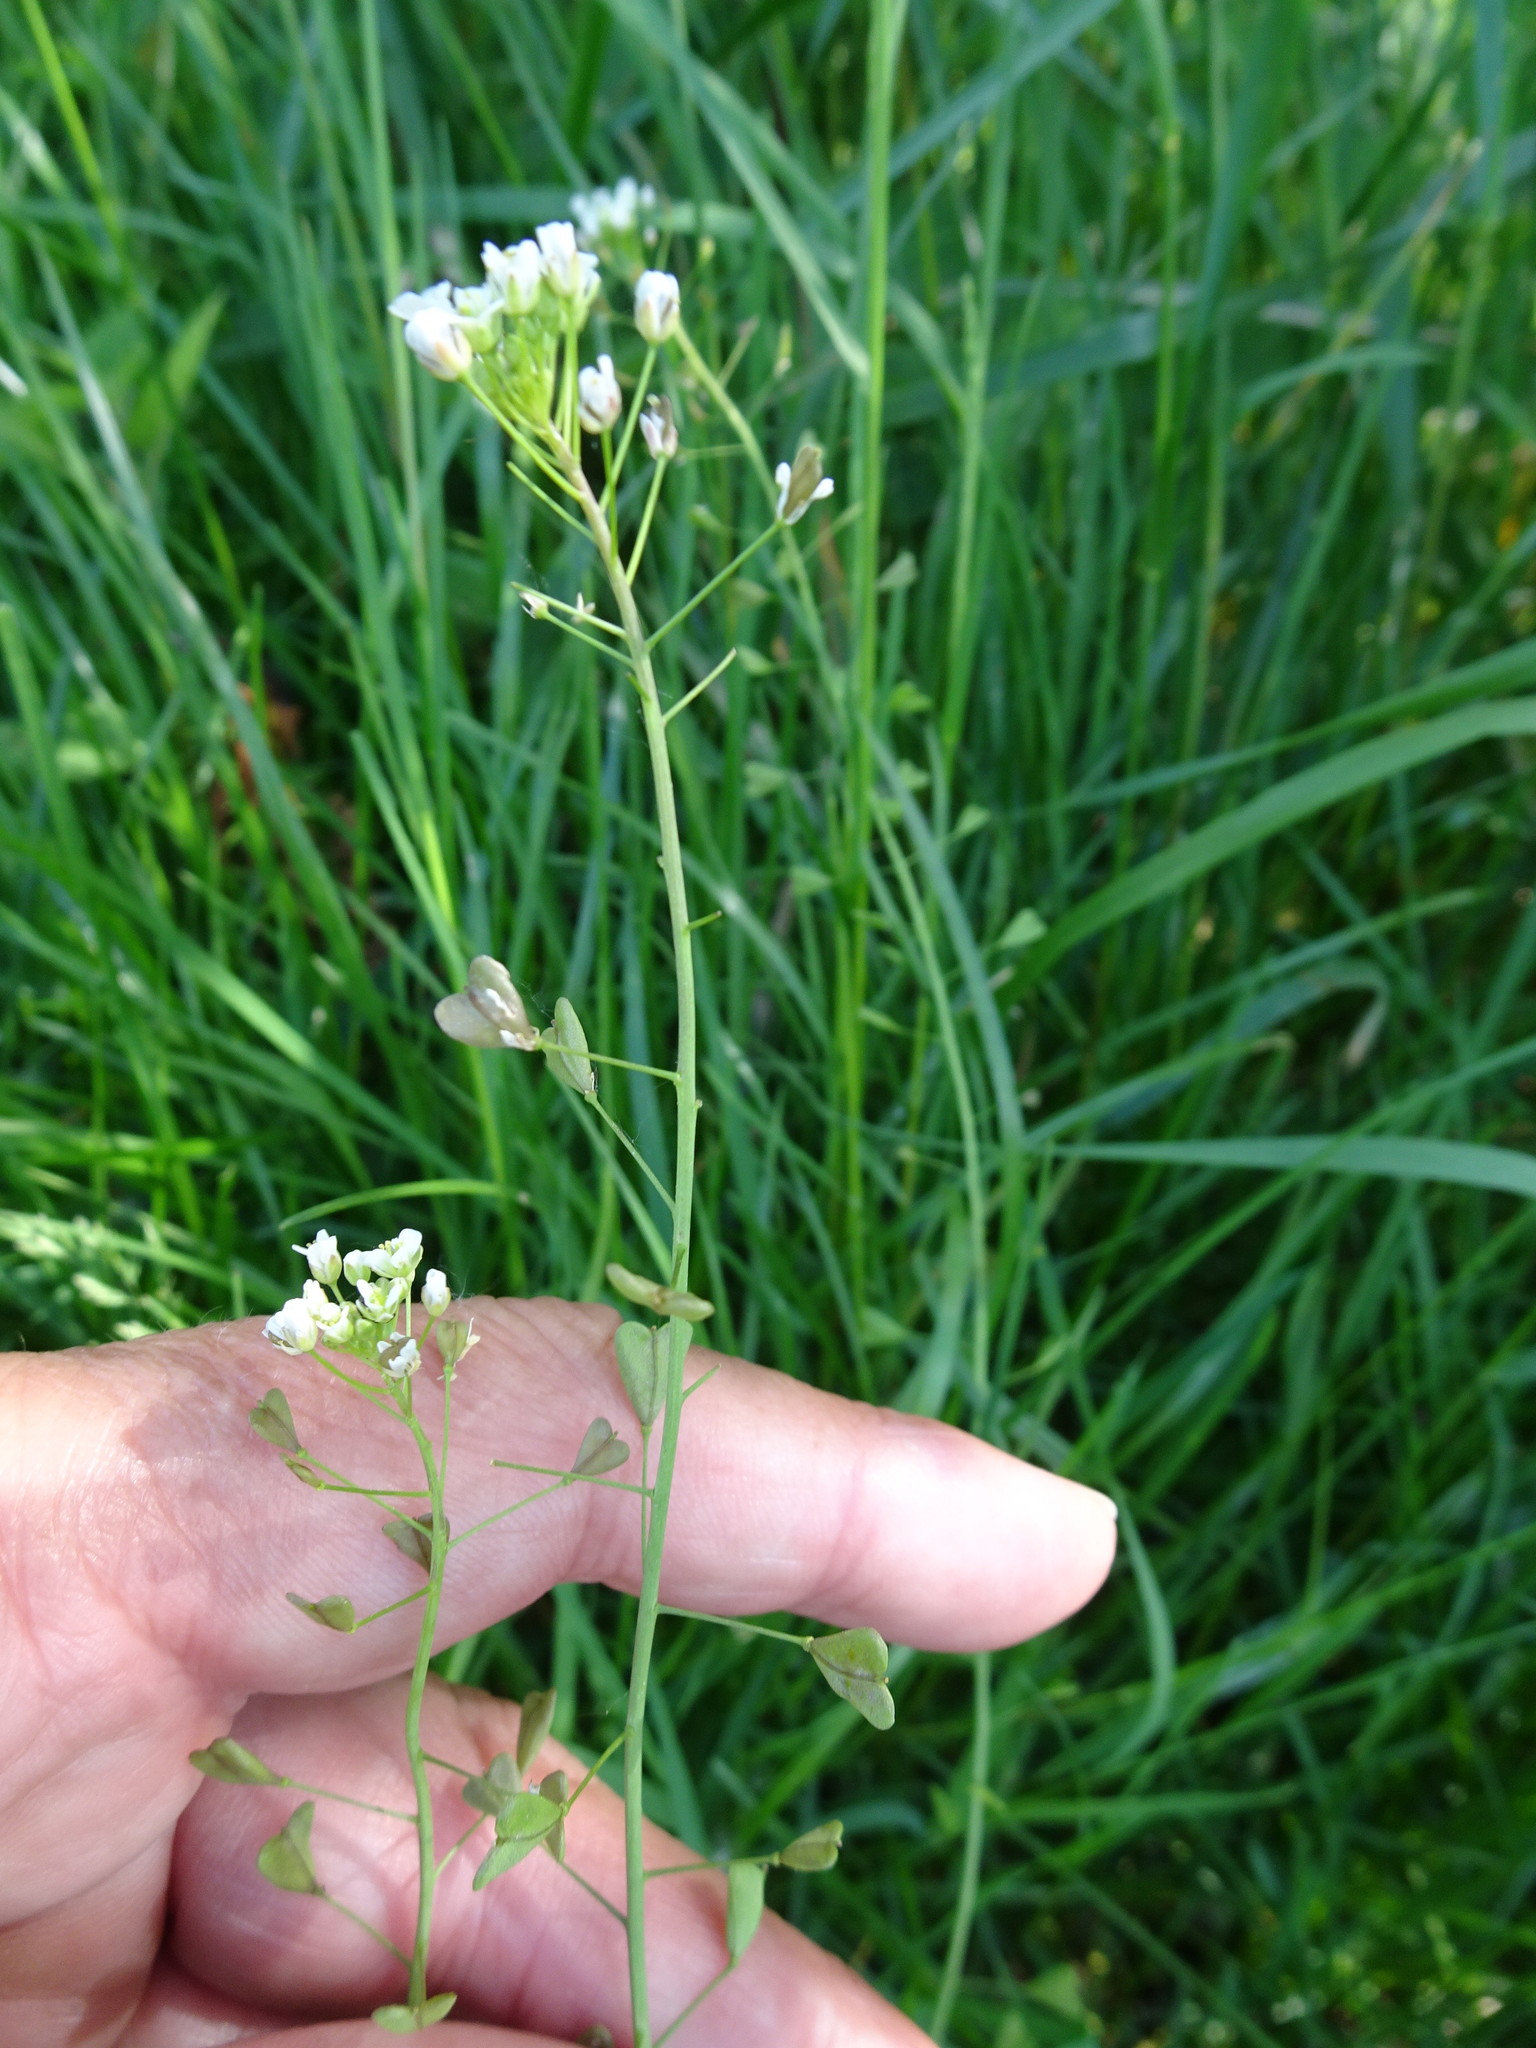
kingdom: Plantae
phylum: Tracheophyta
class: Magnoliopsida
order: Brassicales
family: Brassicaceae
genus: Capsella
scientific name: Capsella bursa-pastoris
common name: Shepherd's purse
